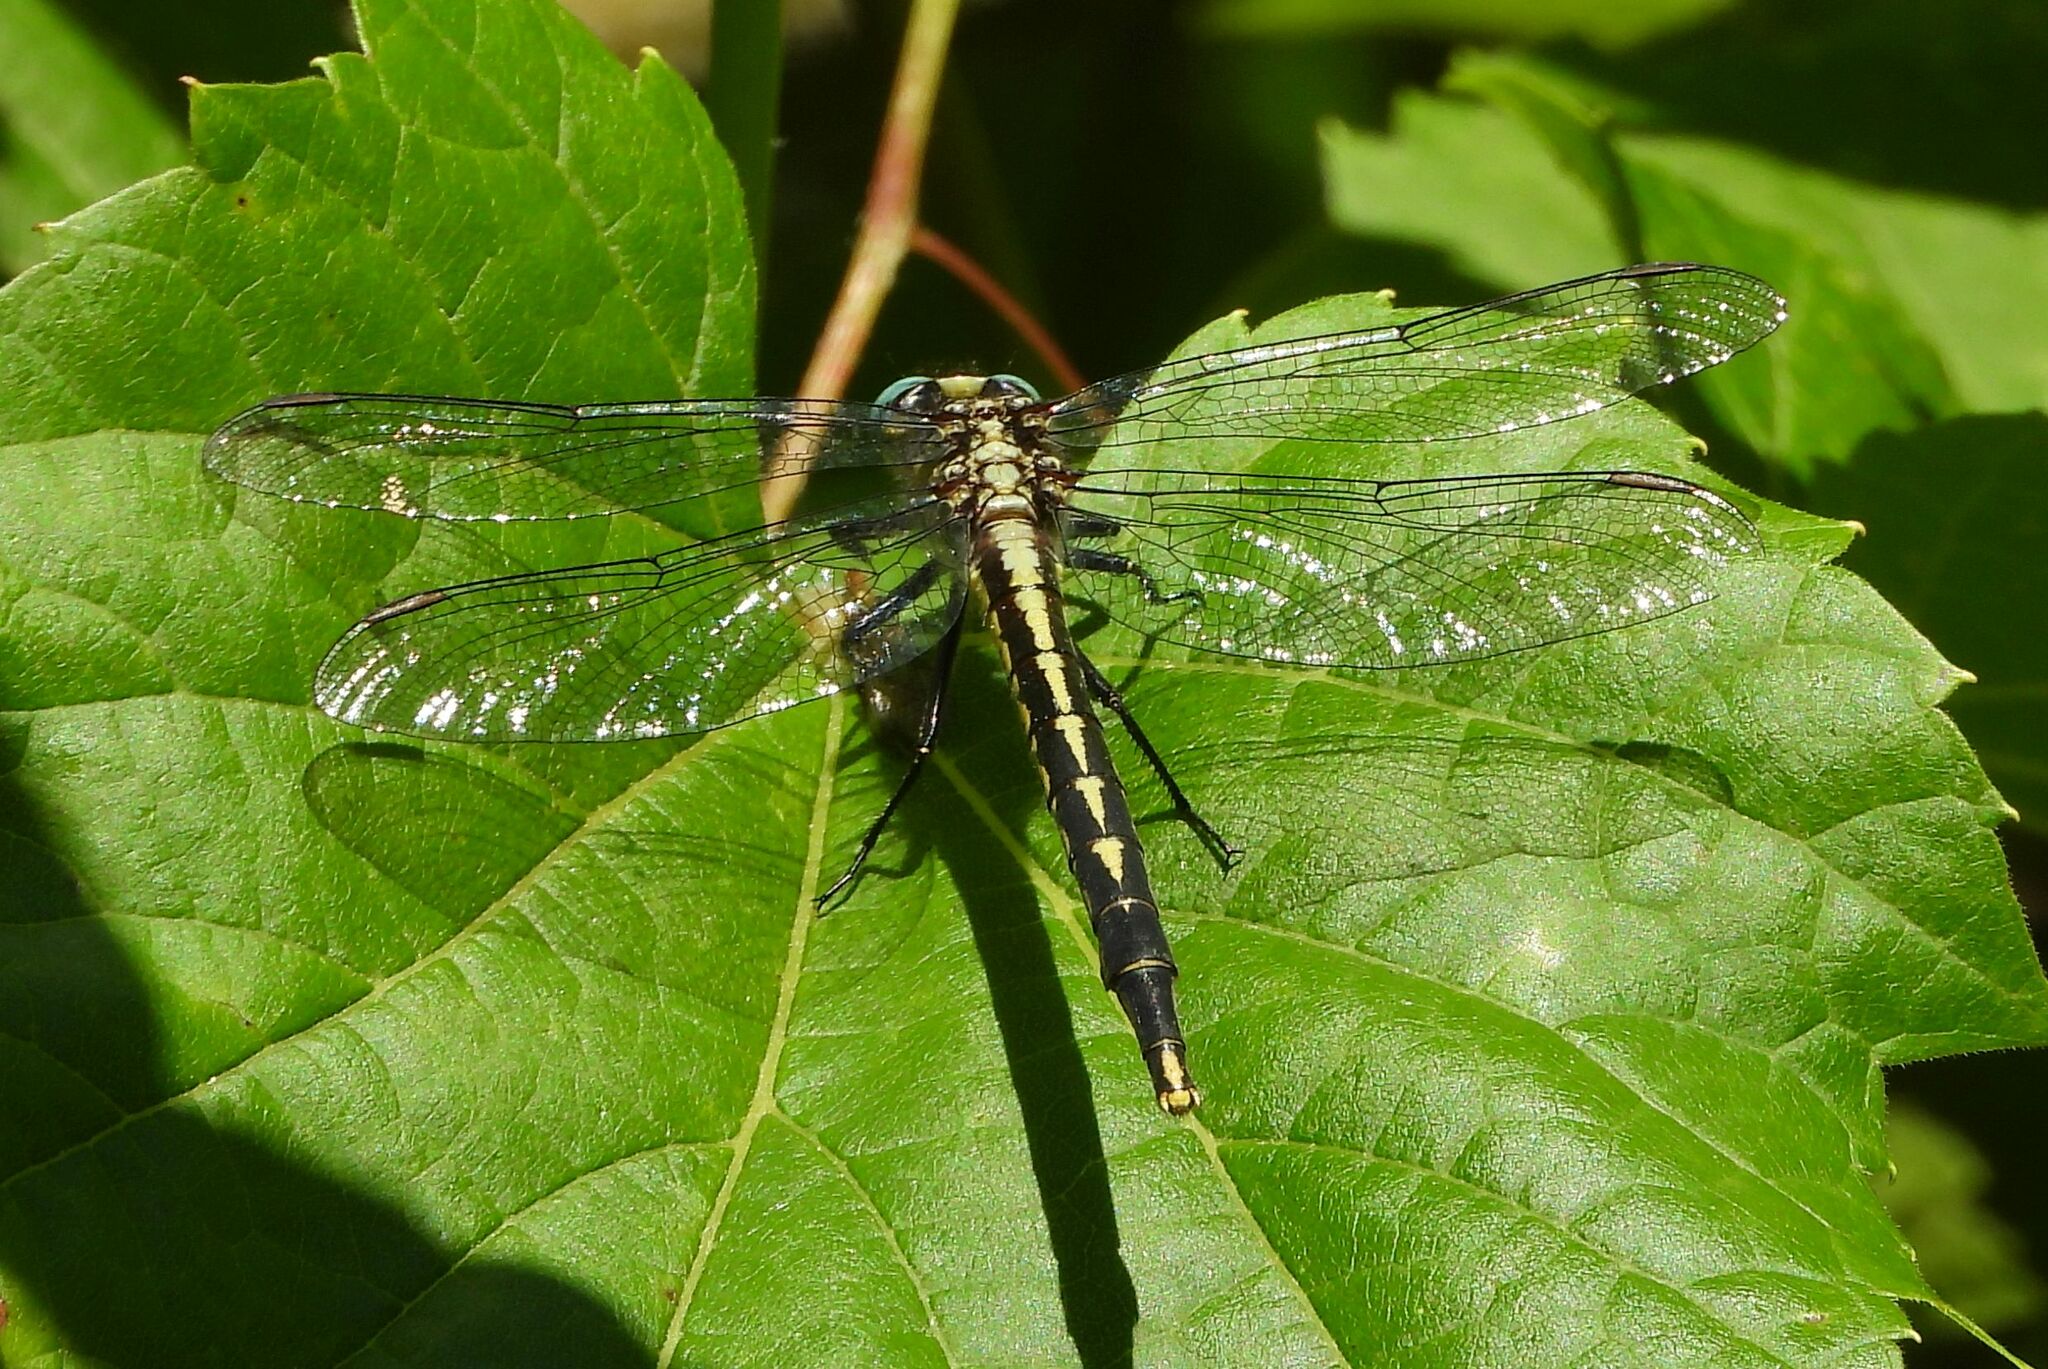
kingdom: Animalia
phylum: Arthropoda
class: Insecta
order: Odonata
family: Gomphidae
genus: Arigomphus
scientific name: Arigomphus furcifer
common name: Lilypad clubtail
